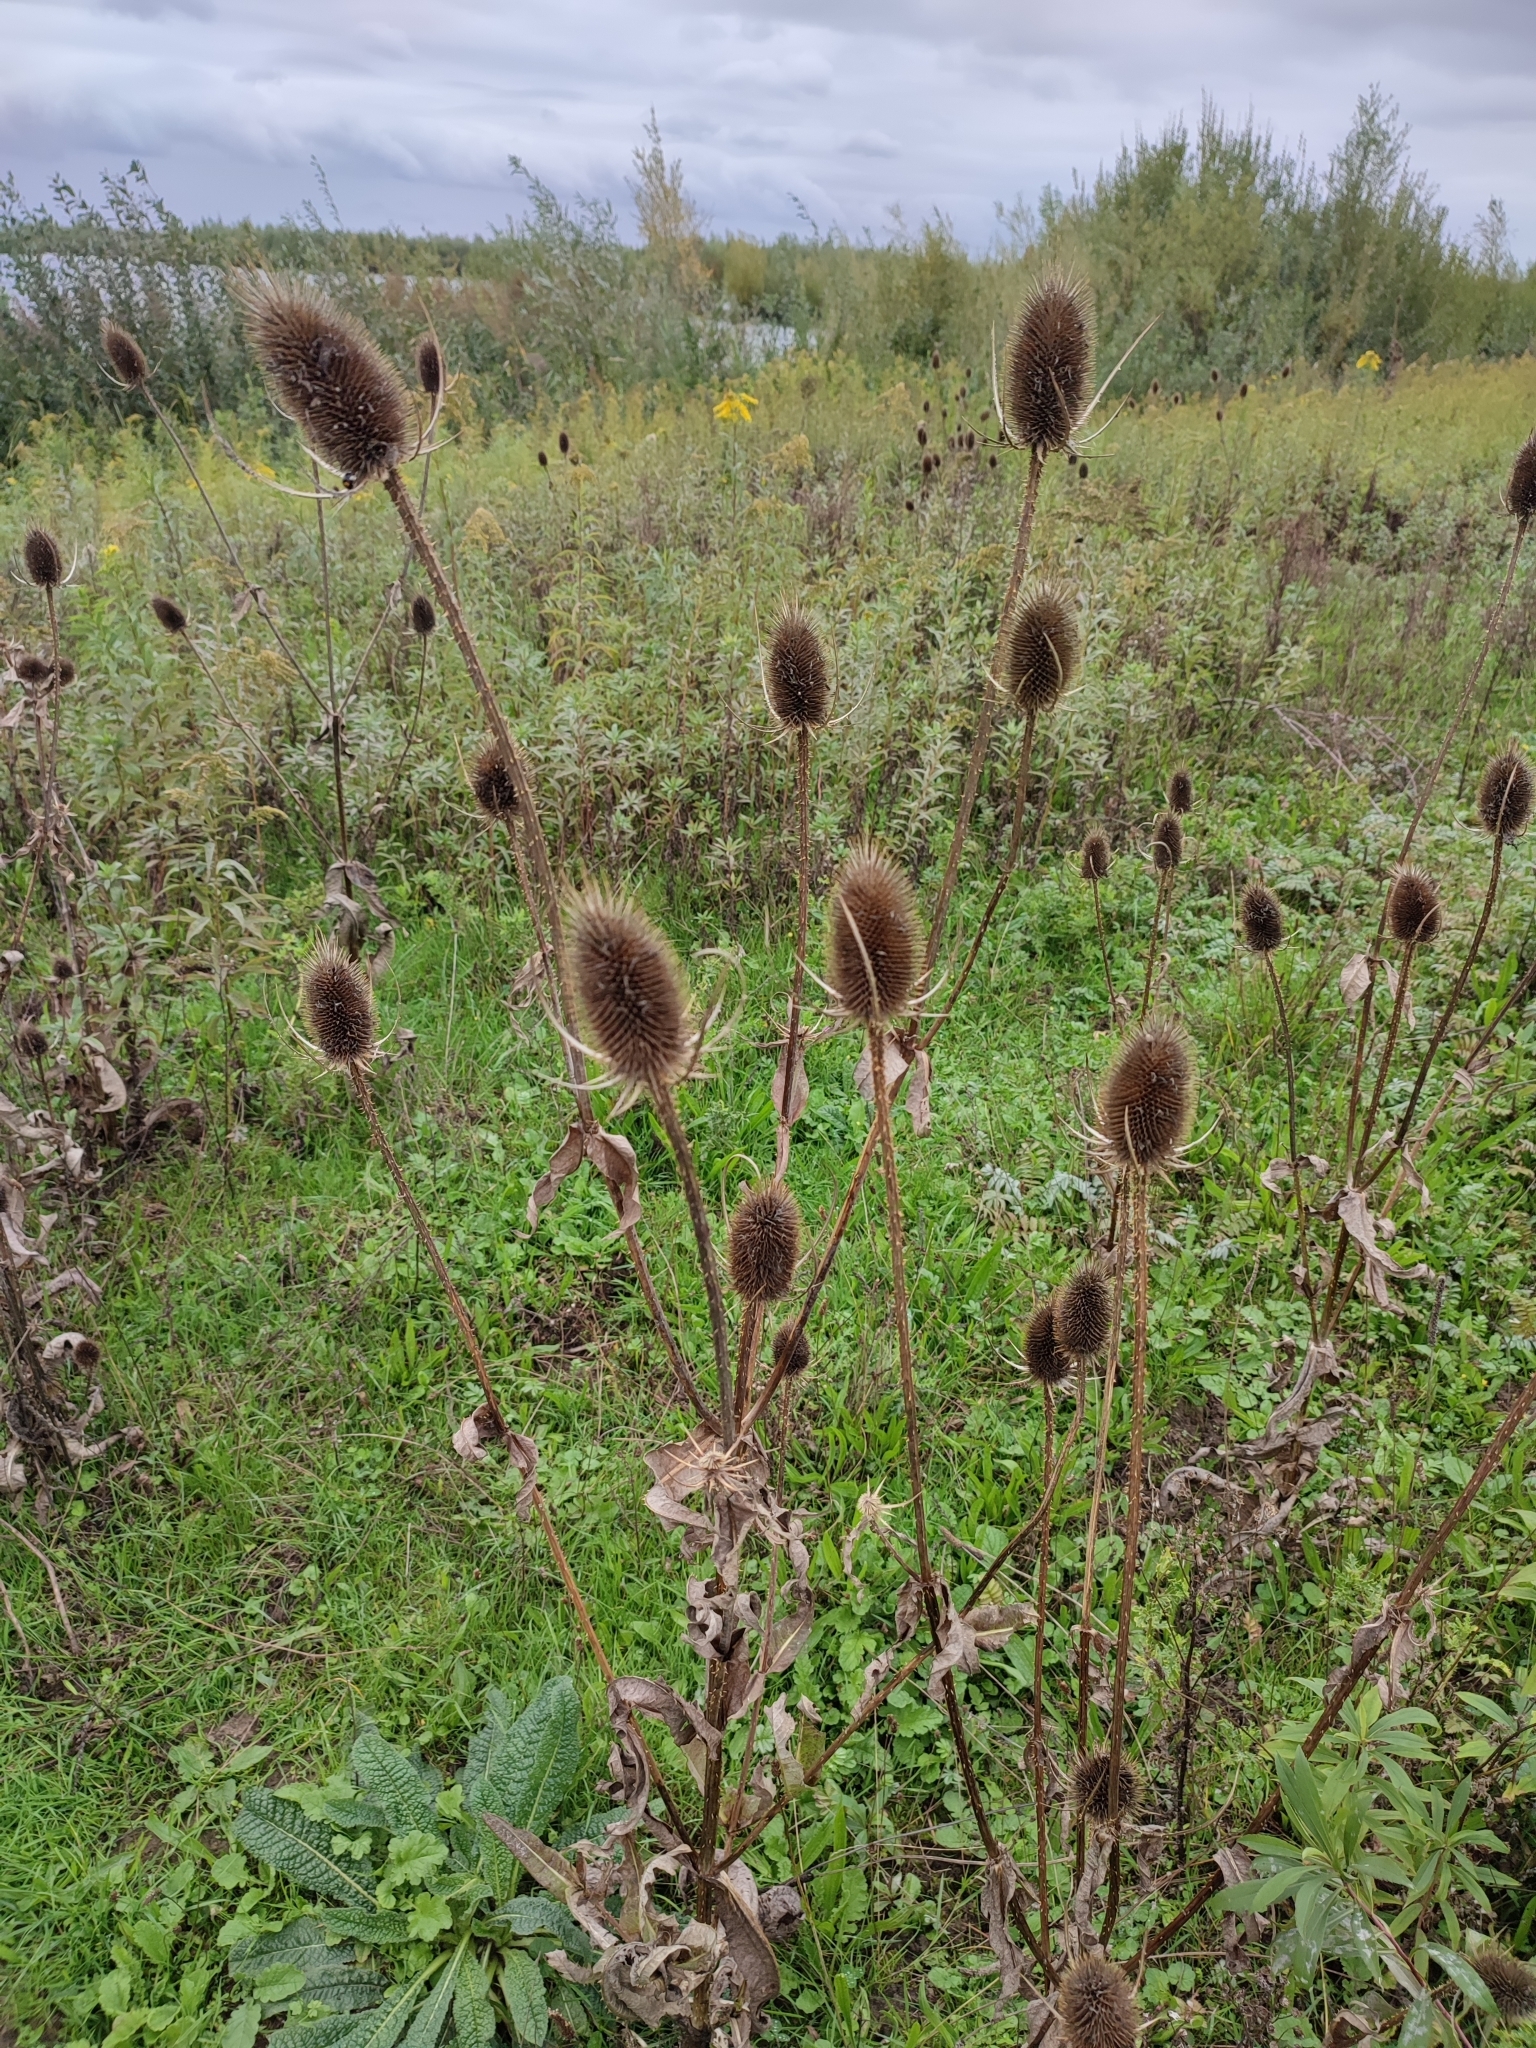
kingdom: Plantae
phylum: Tracheophyta
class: Magnoliopsida
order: Dipsacales
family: Caprifoliaceae
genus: Dipsacus
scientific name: Dipsacus fullonum
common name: Teasel
